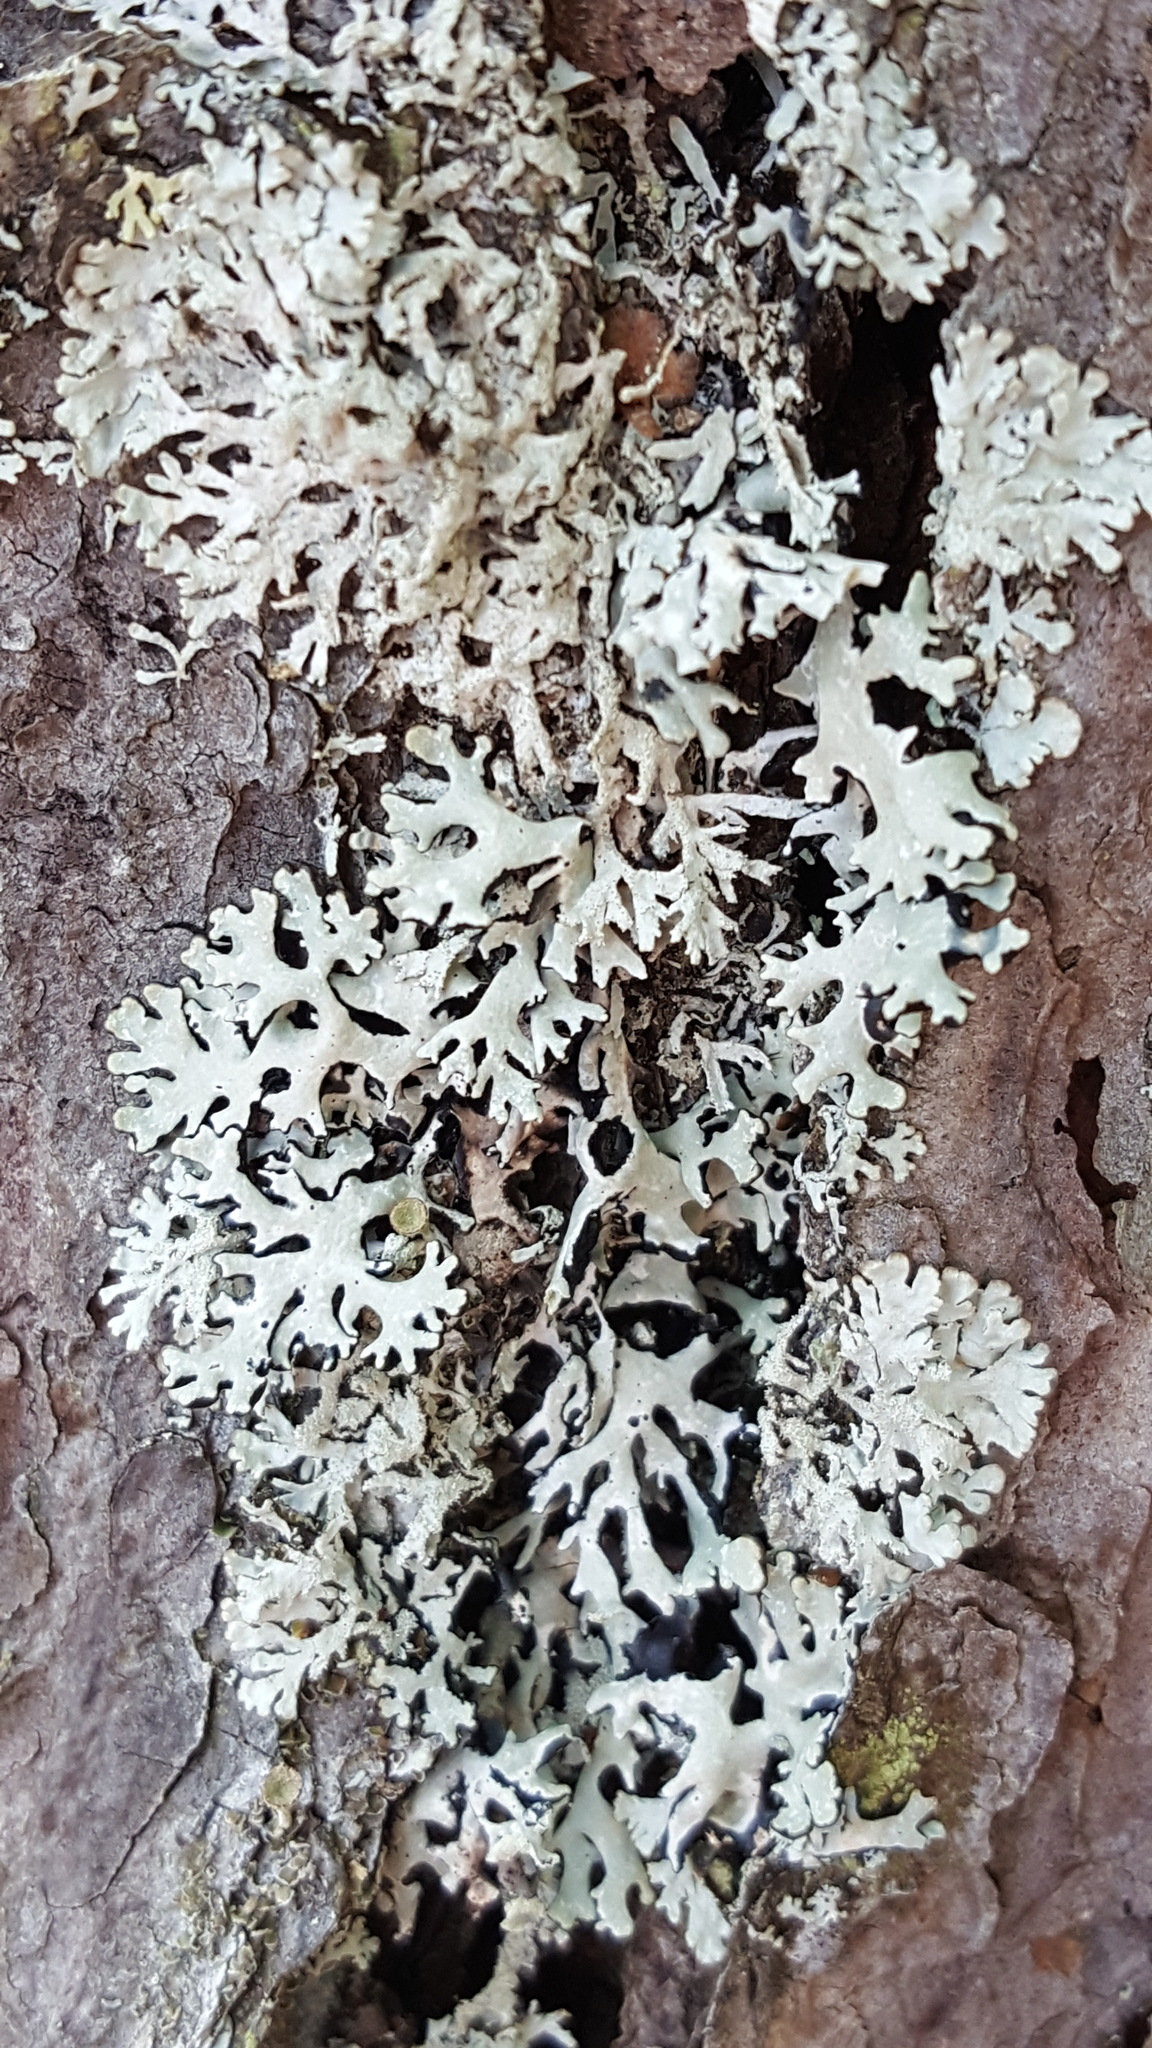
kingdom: Fungi
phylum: Ascomycota
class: Lecanoromycetes
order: Lecanorales
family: Parmeliaceae
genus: Hypogymnia
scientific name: Hypogymnia physodes
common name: Dark crottle
